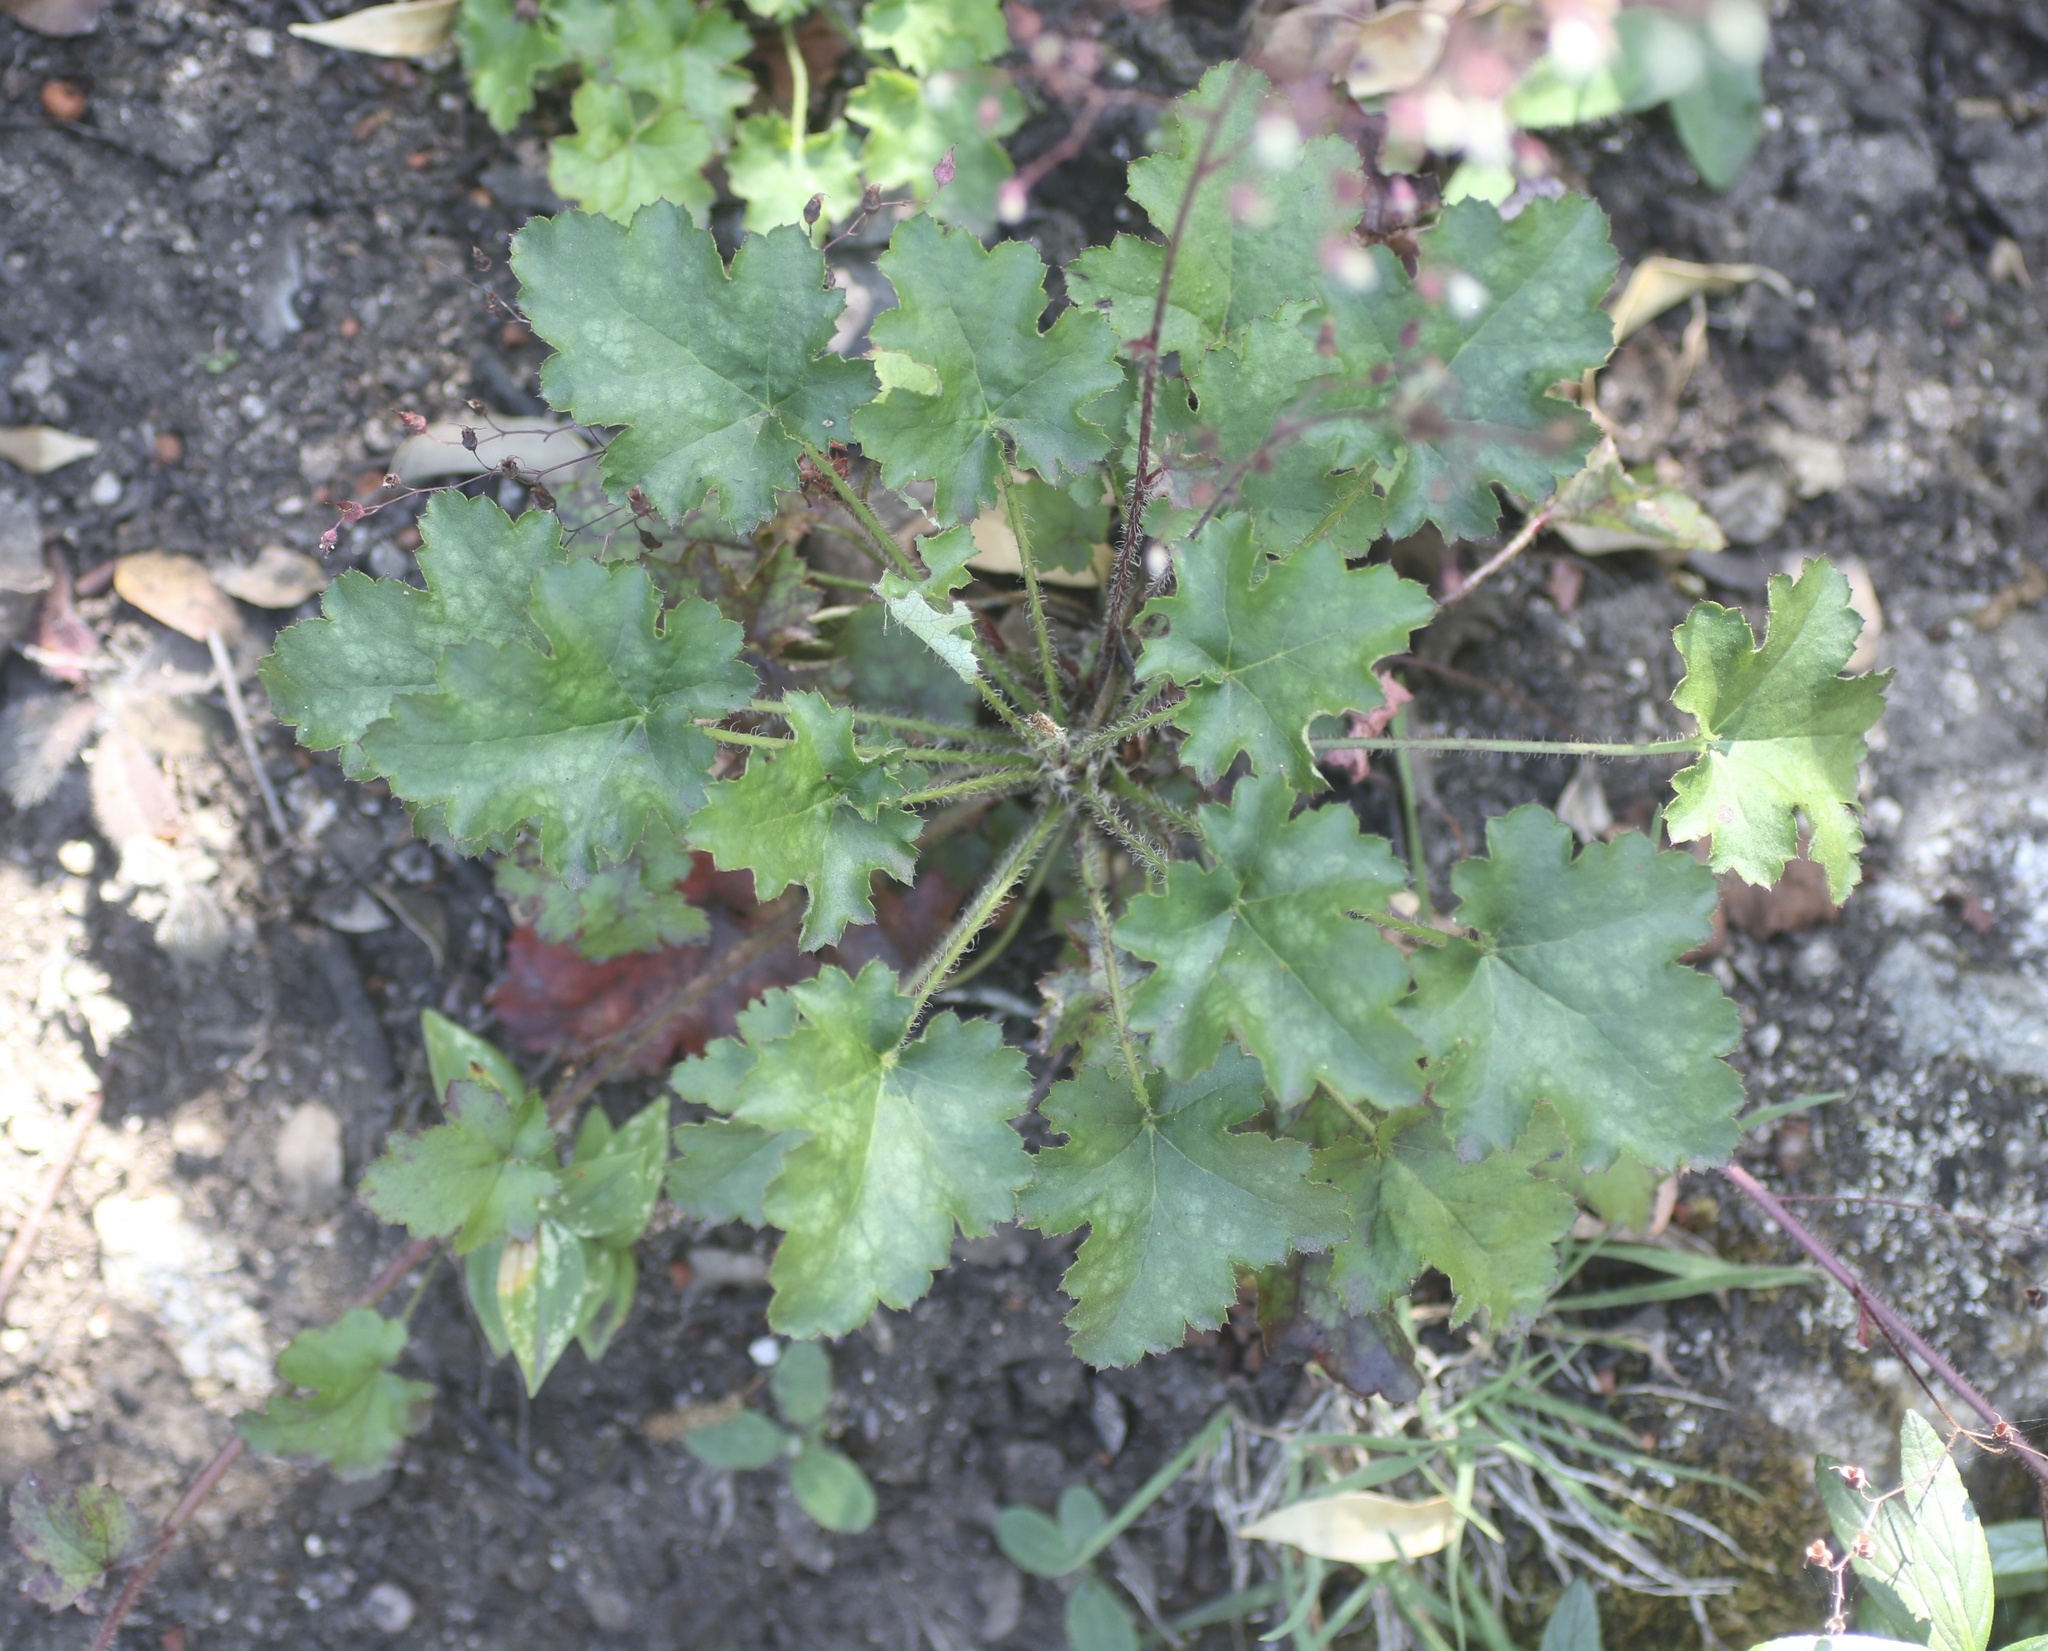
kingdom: Plantae
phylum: Tracheophyta
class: Magnoliopsida
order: Saxifragales
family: Saxifragaceae
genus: Heuchera
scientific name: Heuchera micrantha
